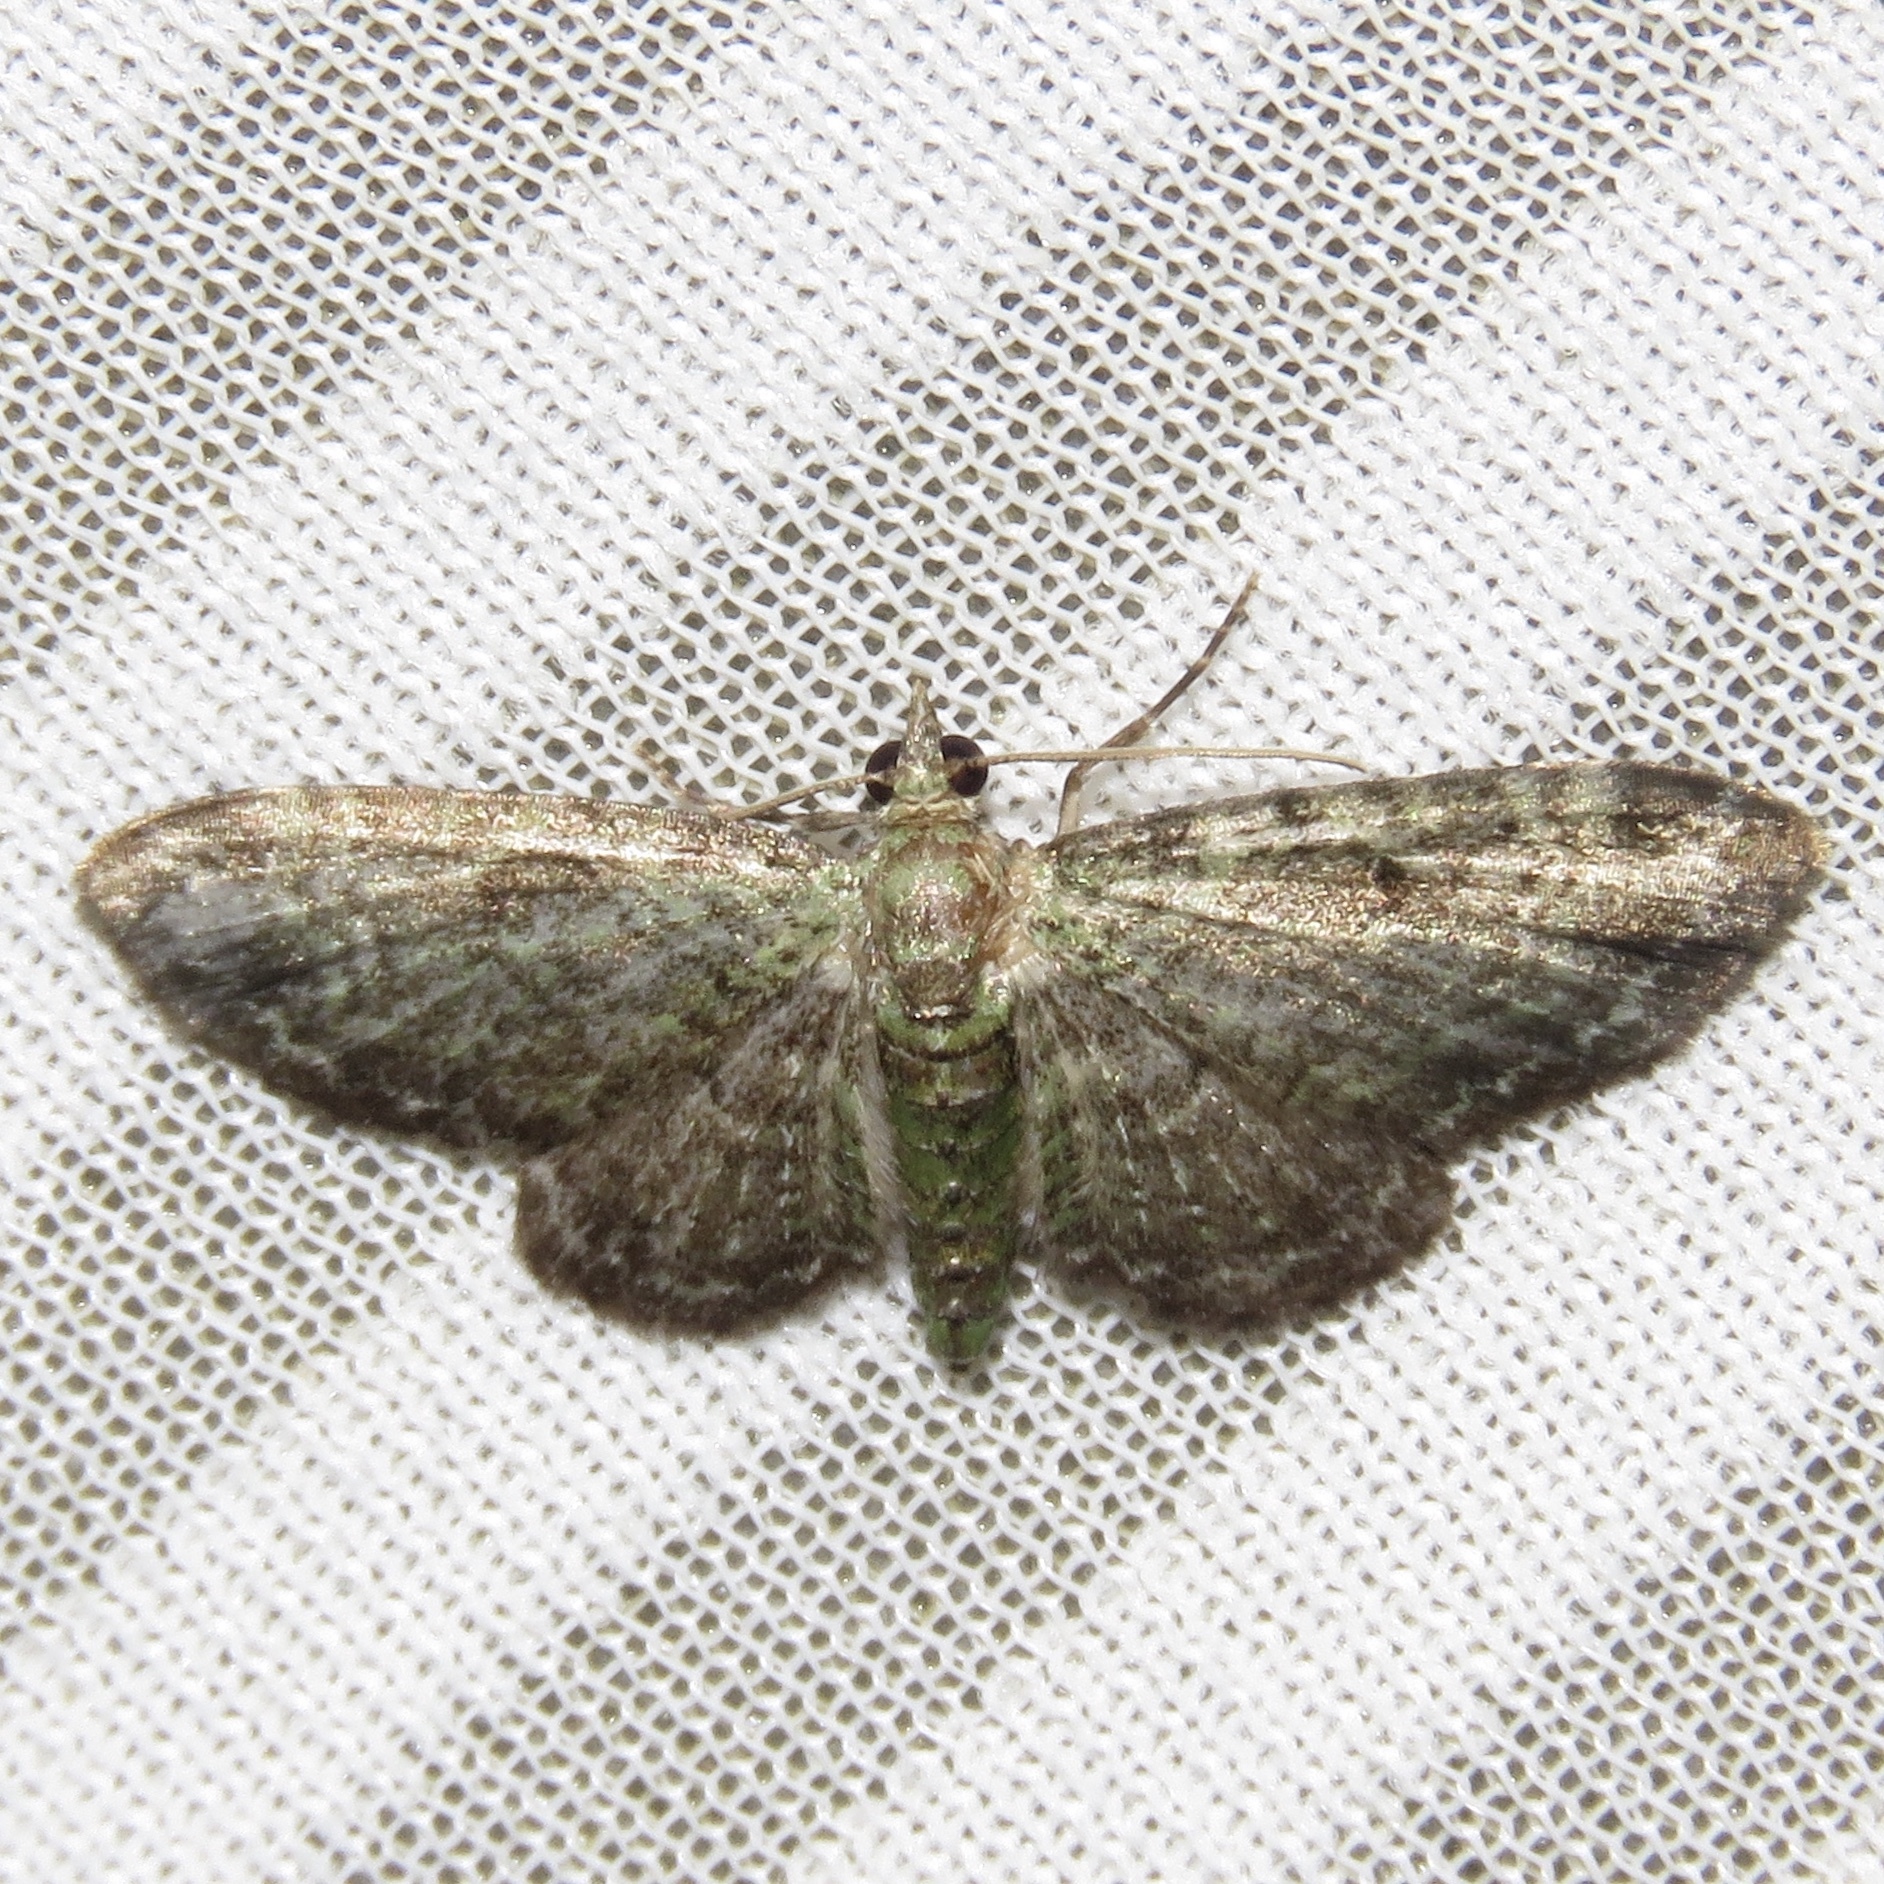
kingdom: Animalia
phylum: Arthropoda
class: Insecta
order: Lepidoptera
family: Geometridae
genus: Pasiphila
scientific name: Pasiphila rectangulata
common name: Green pug
